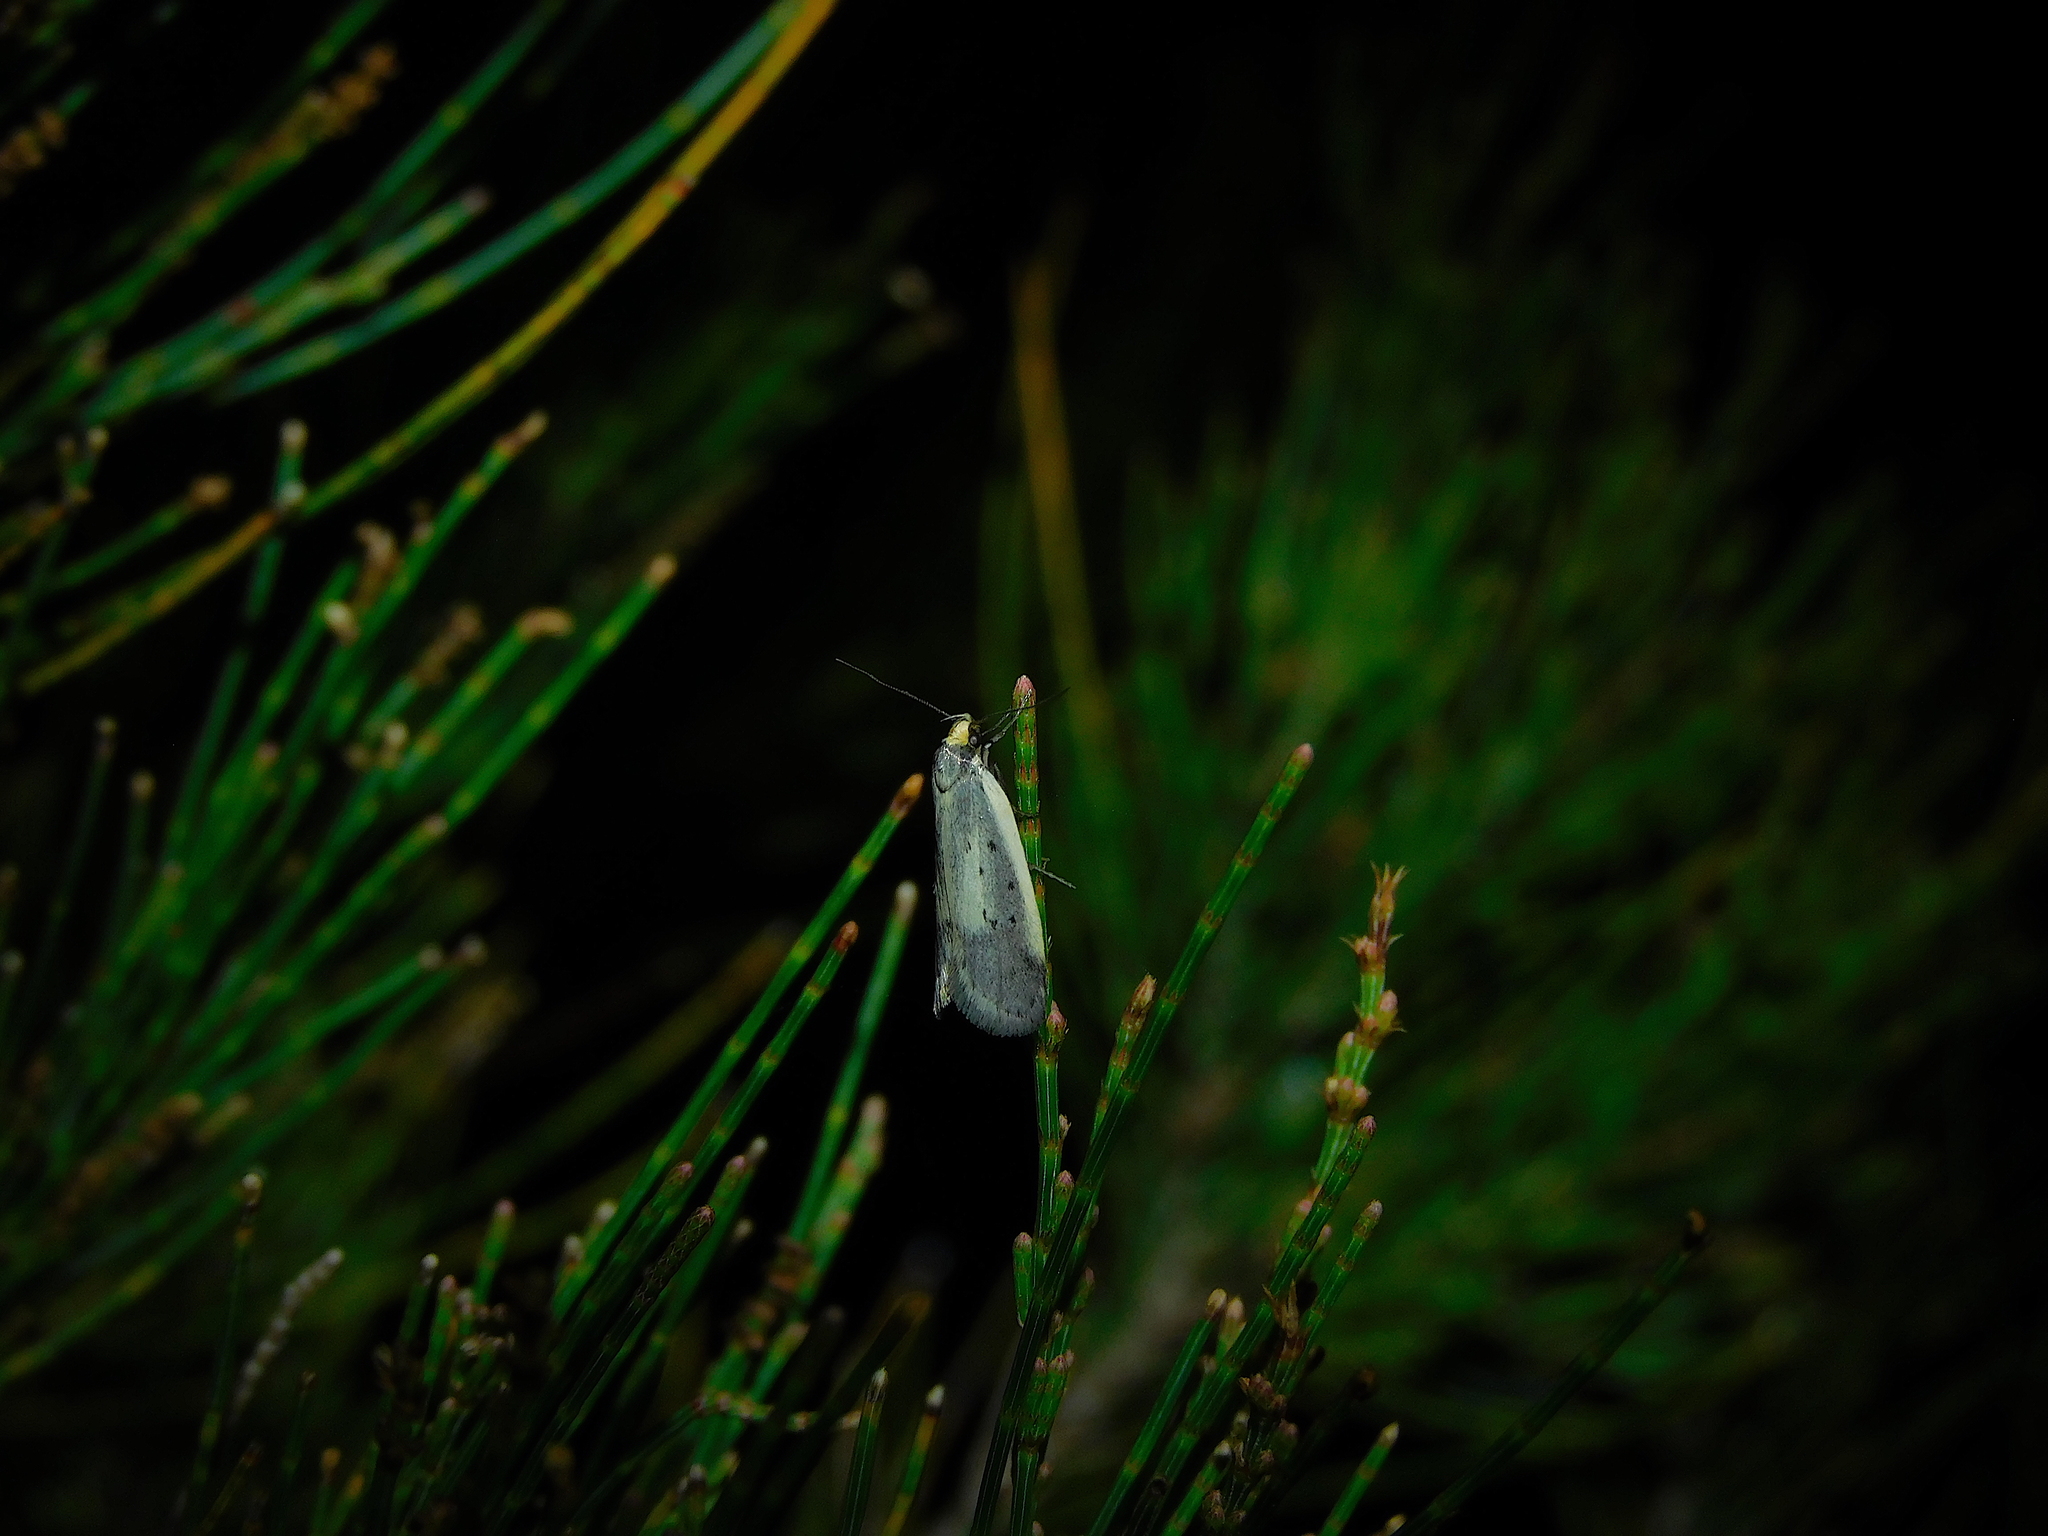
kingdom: Animalia
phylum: Arthropoda
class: Insecta
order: Lepidoptera
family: Oecophoridae
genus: Philobota
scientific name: Philobota atmobola
